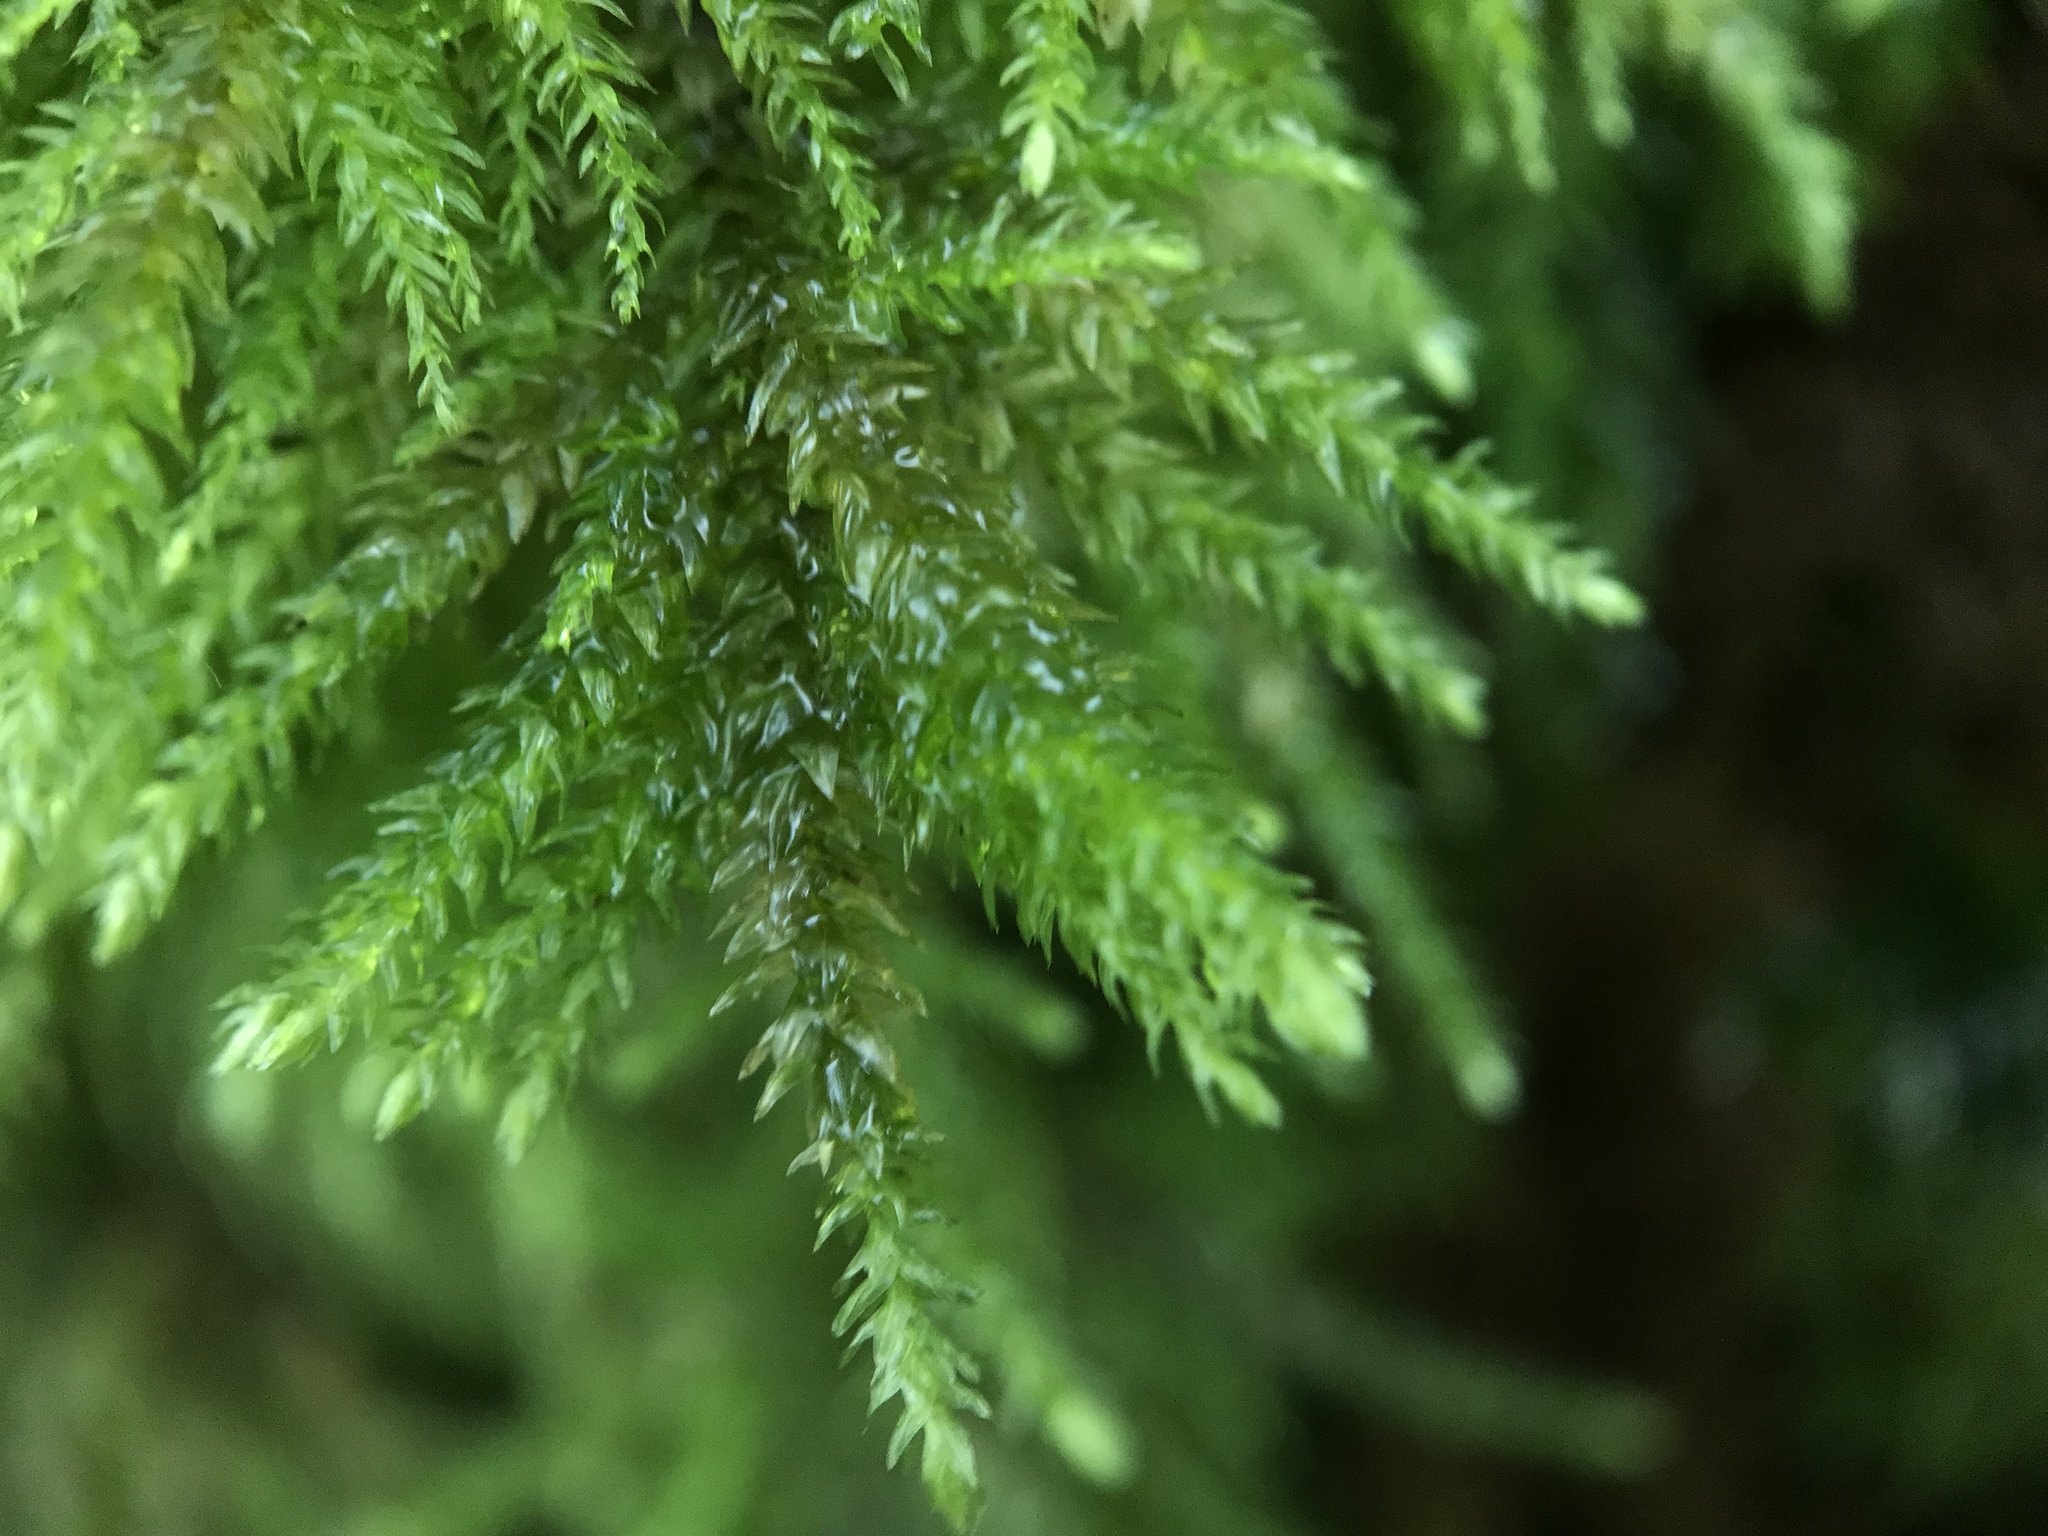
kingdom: Plantae
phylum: Bryophyta
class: Bryopsida
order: Hypnales
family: Neckeraceae
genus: Thamnobryum
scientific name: Thamnobryum alopecurum
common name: Fox-tail feather-moss
